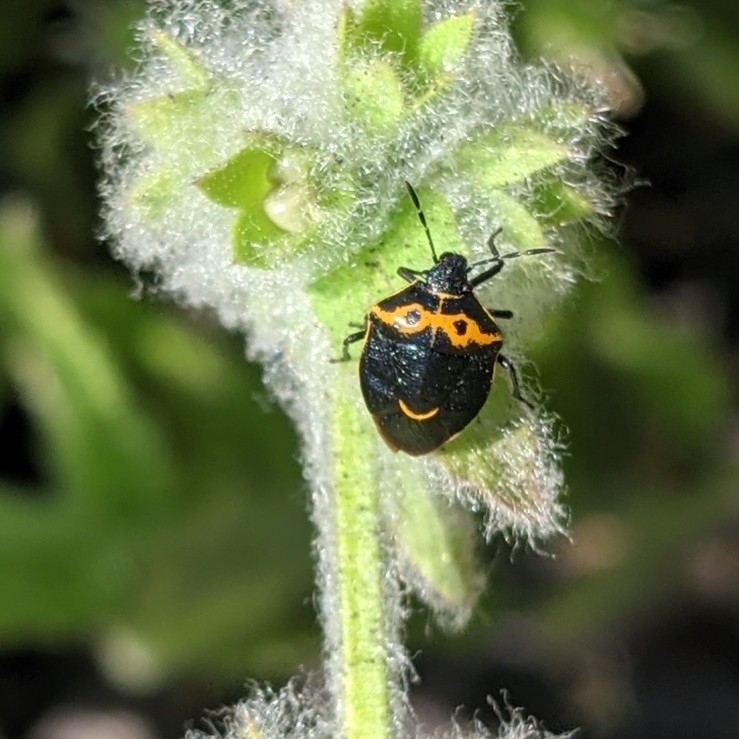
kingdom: Animalia
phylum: Arthropoda
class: Insecta
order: Hemiptera
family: Pentatomidae
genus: Cosmopepla
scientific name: Cosmopepla conspicillaris
